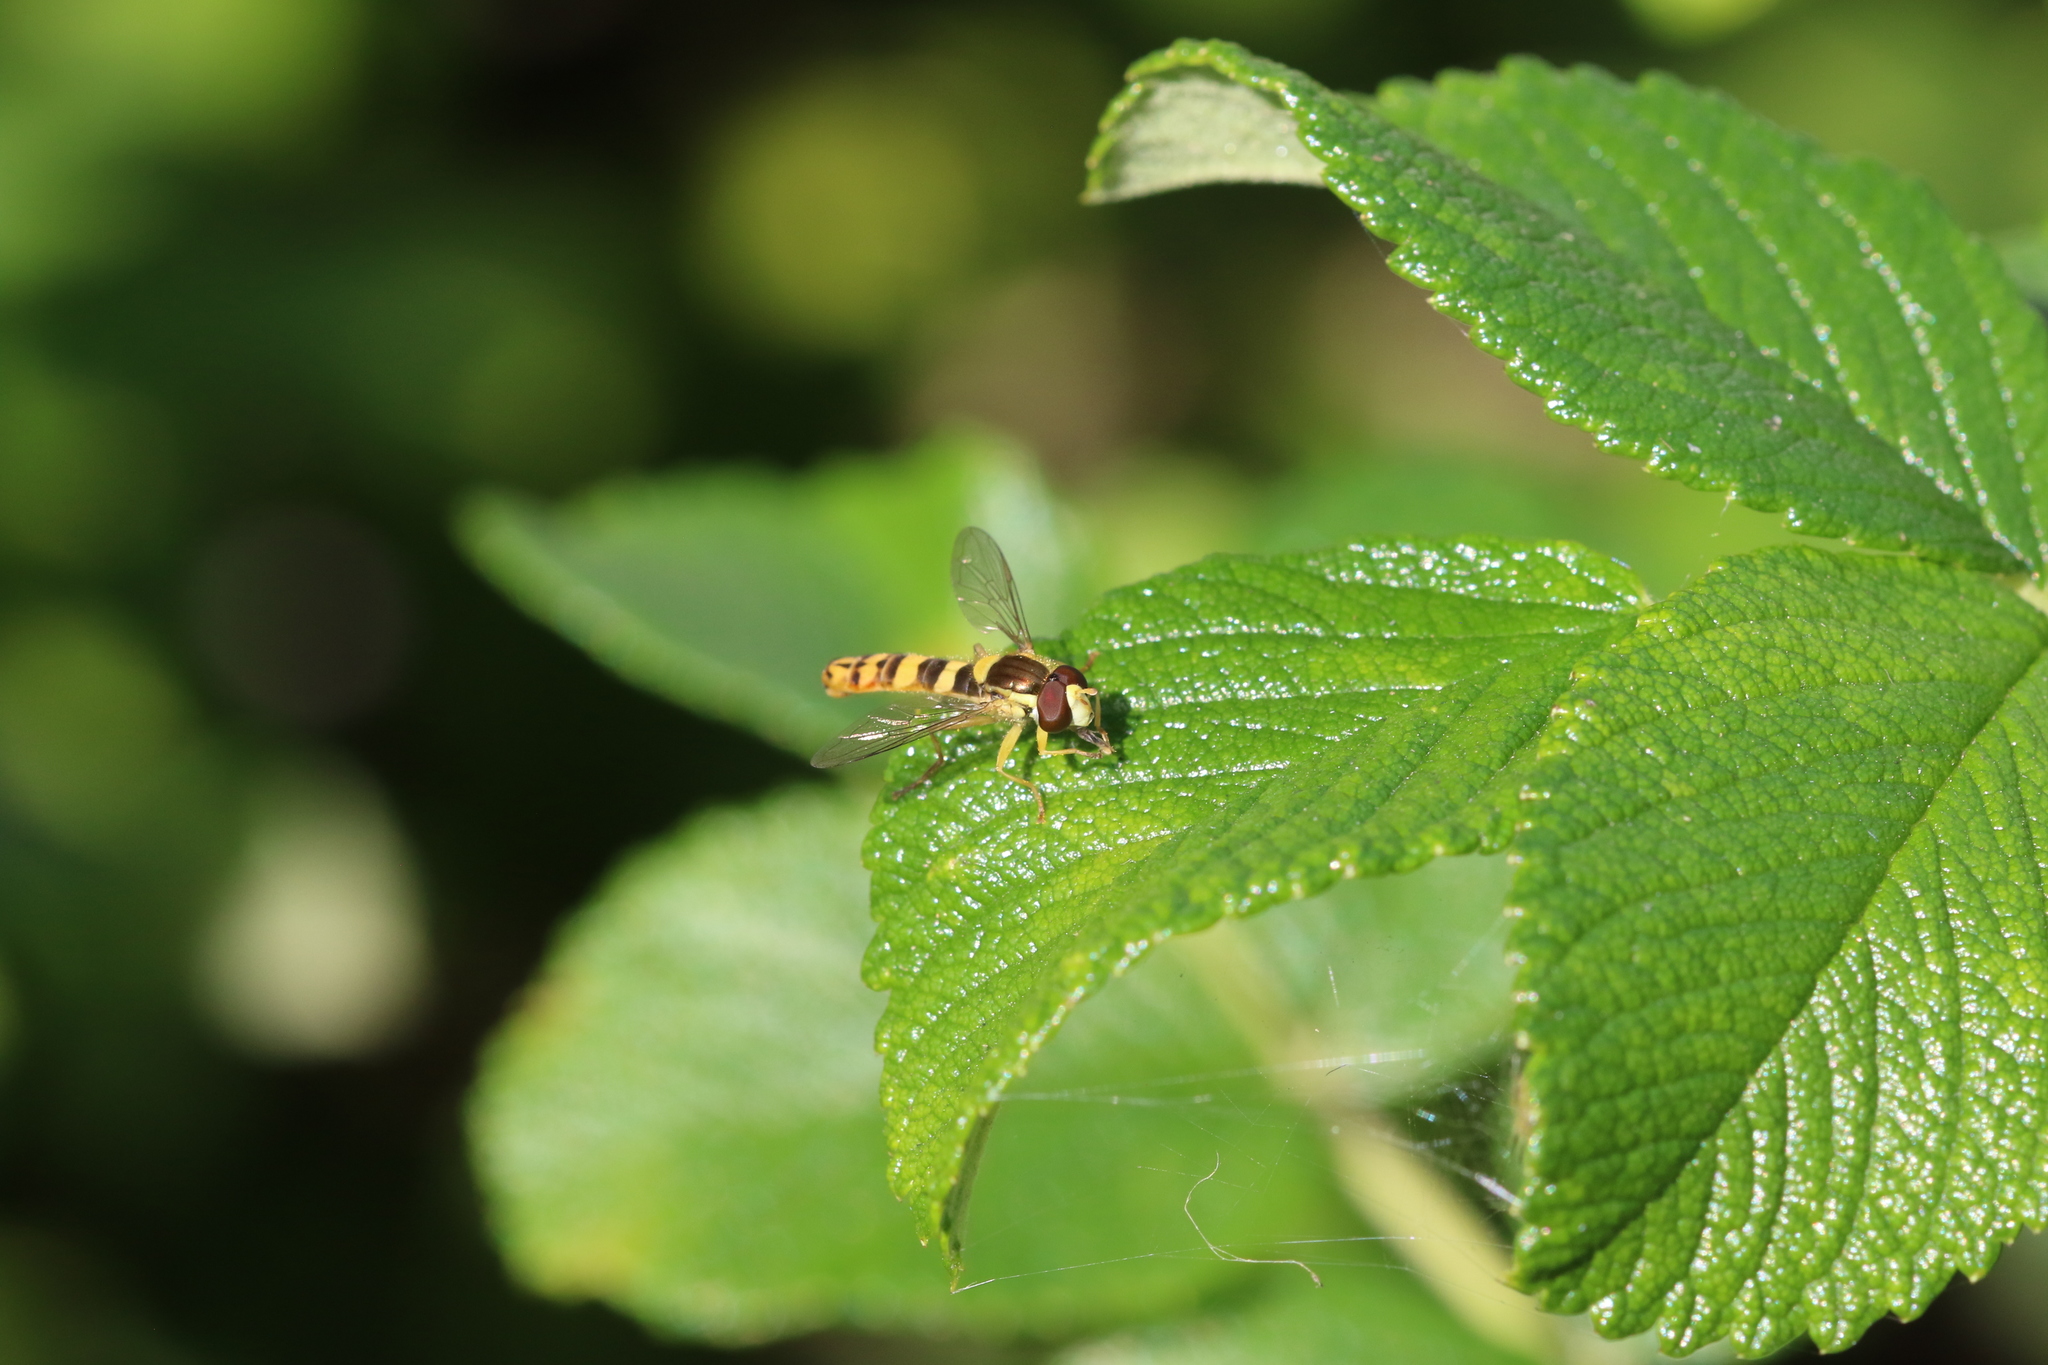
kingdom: Animalia
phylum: Arthropoda
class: Insecta
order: Diptera
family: Syrphidae
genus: Sphaerophoria
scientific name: Sphaerophoria
